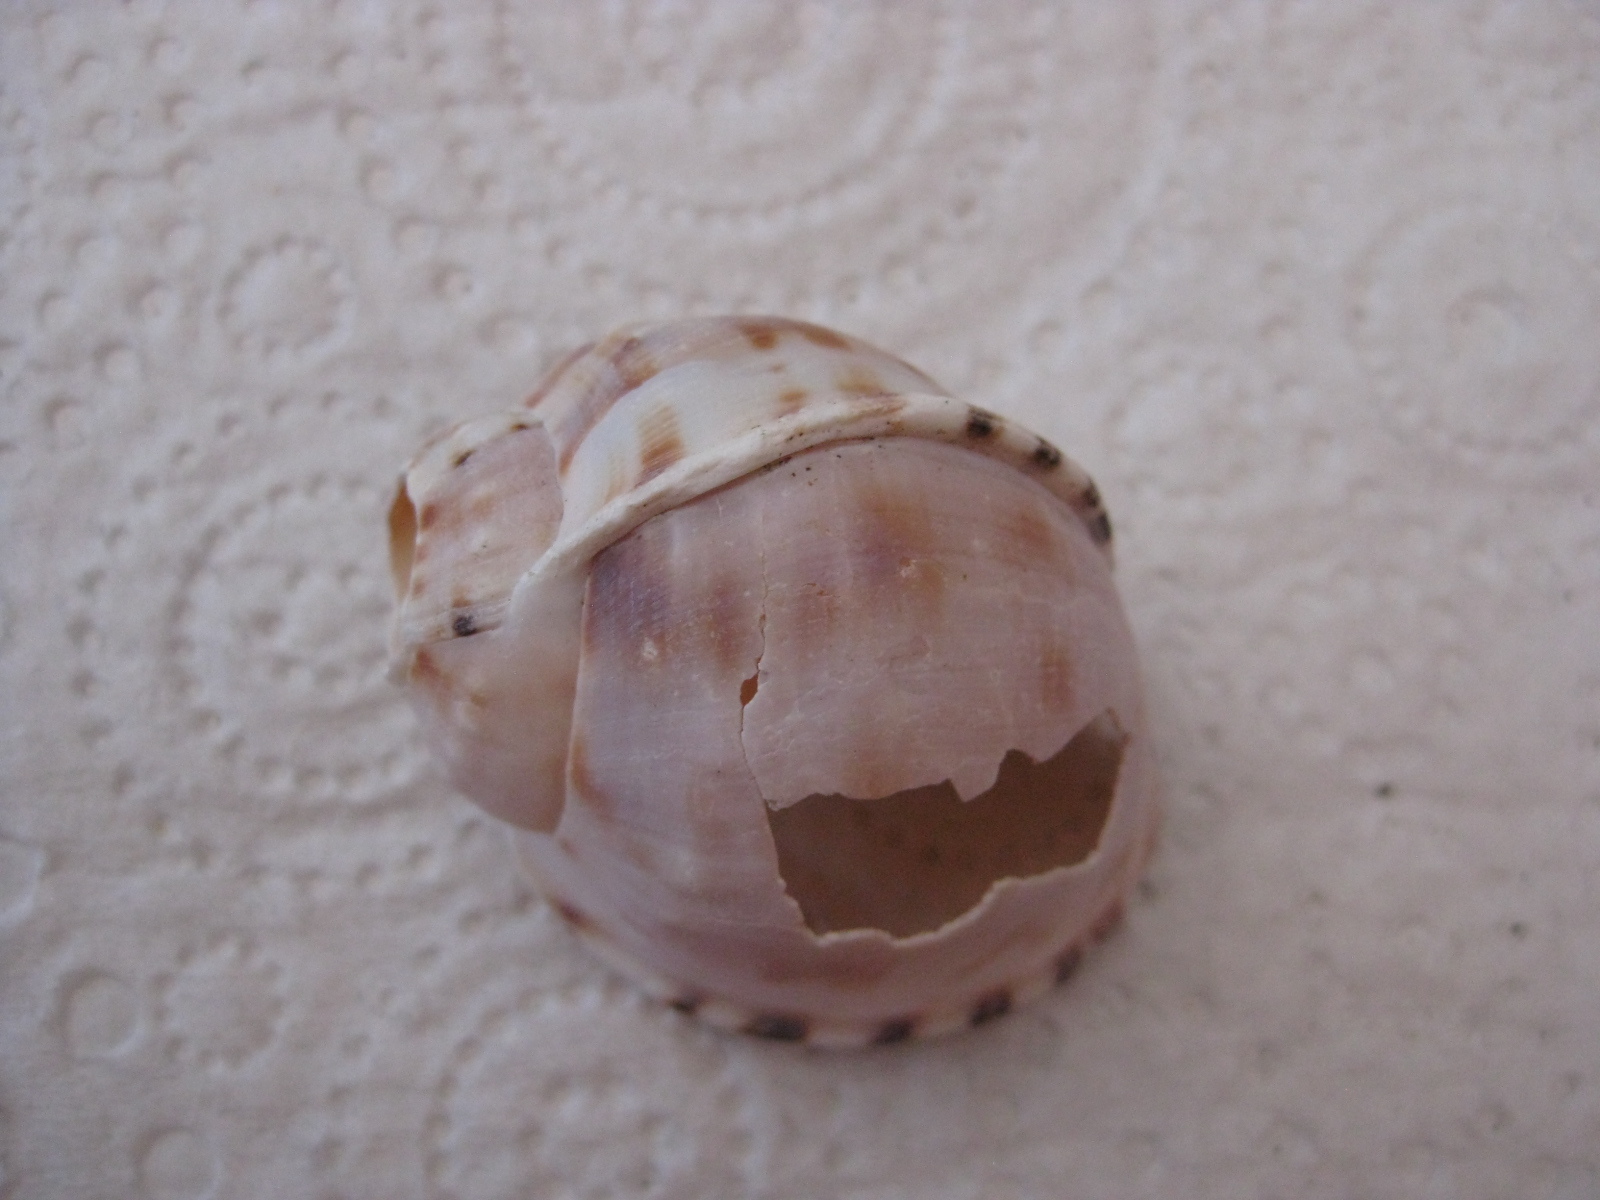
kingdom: Animalia
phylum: Mollusca
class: Gastropoda
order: Littorinimorpha
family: Cassidae
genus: Semicassis
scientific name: Semicassis pyrum
